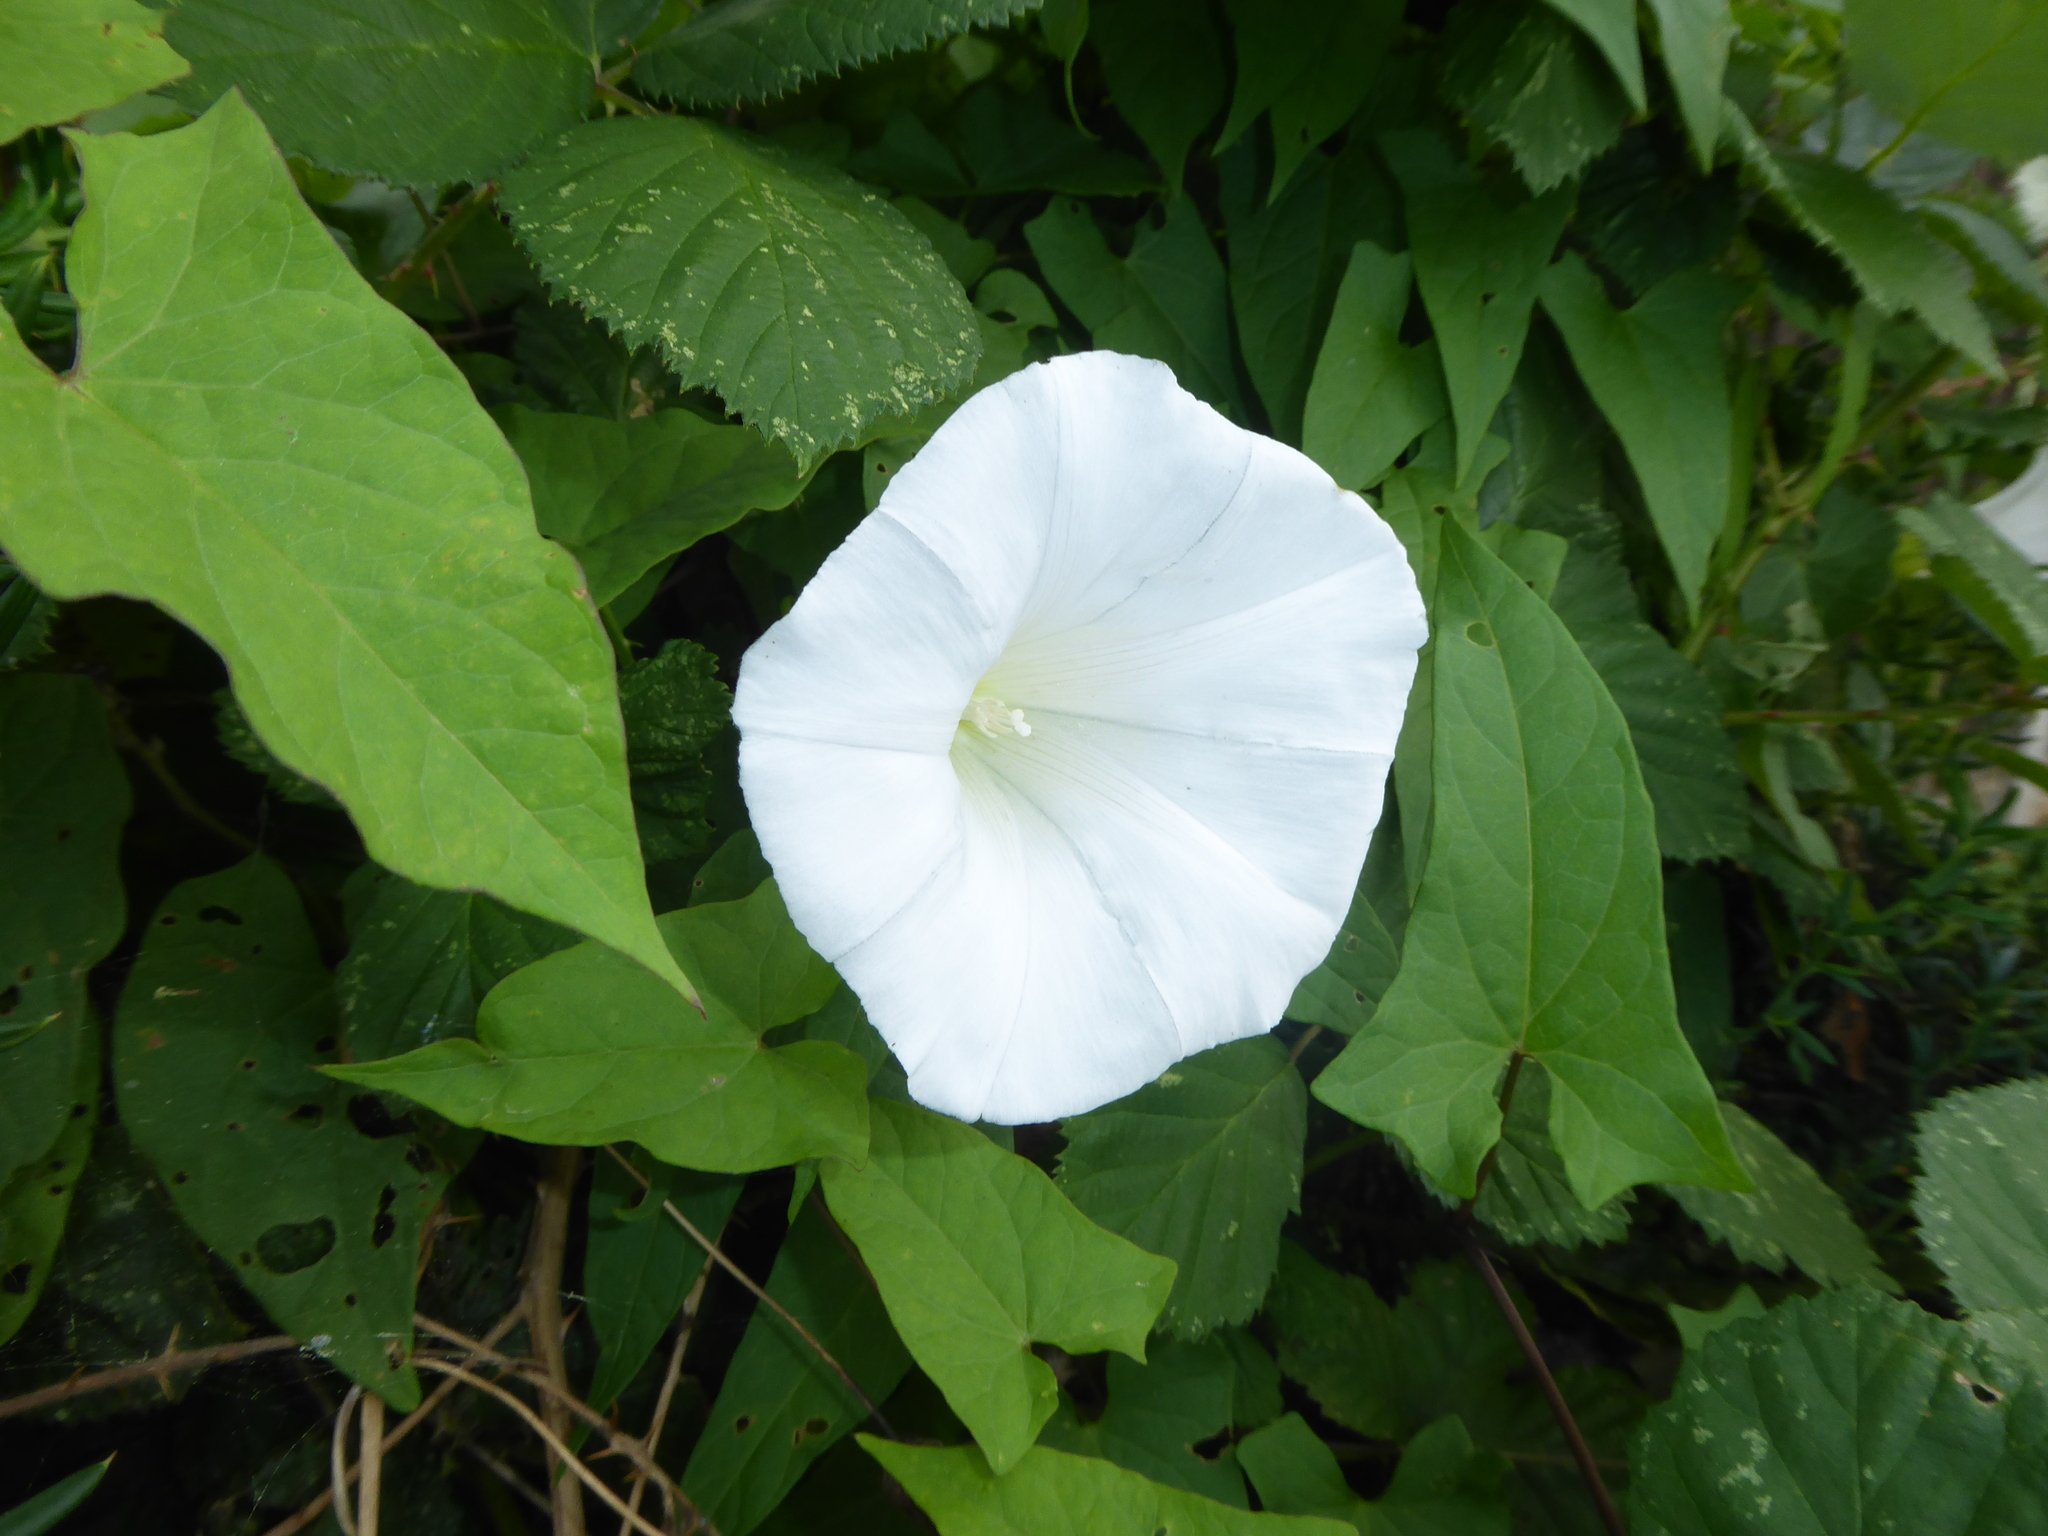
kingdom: Plantae
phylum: Tracheophyta
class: Magnoliopsida
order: Solanales
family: Convolvulaceae
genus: Calystegia
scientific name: Calystegia lucana
